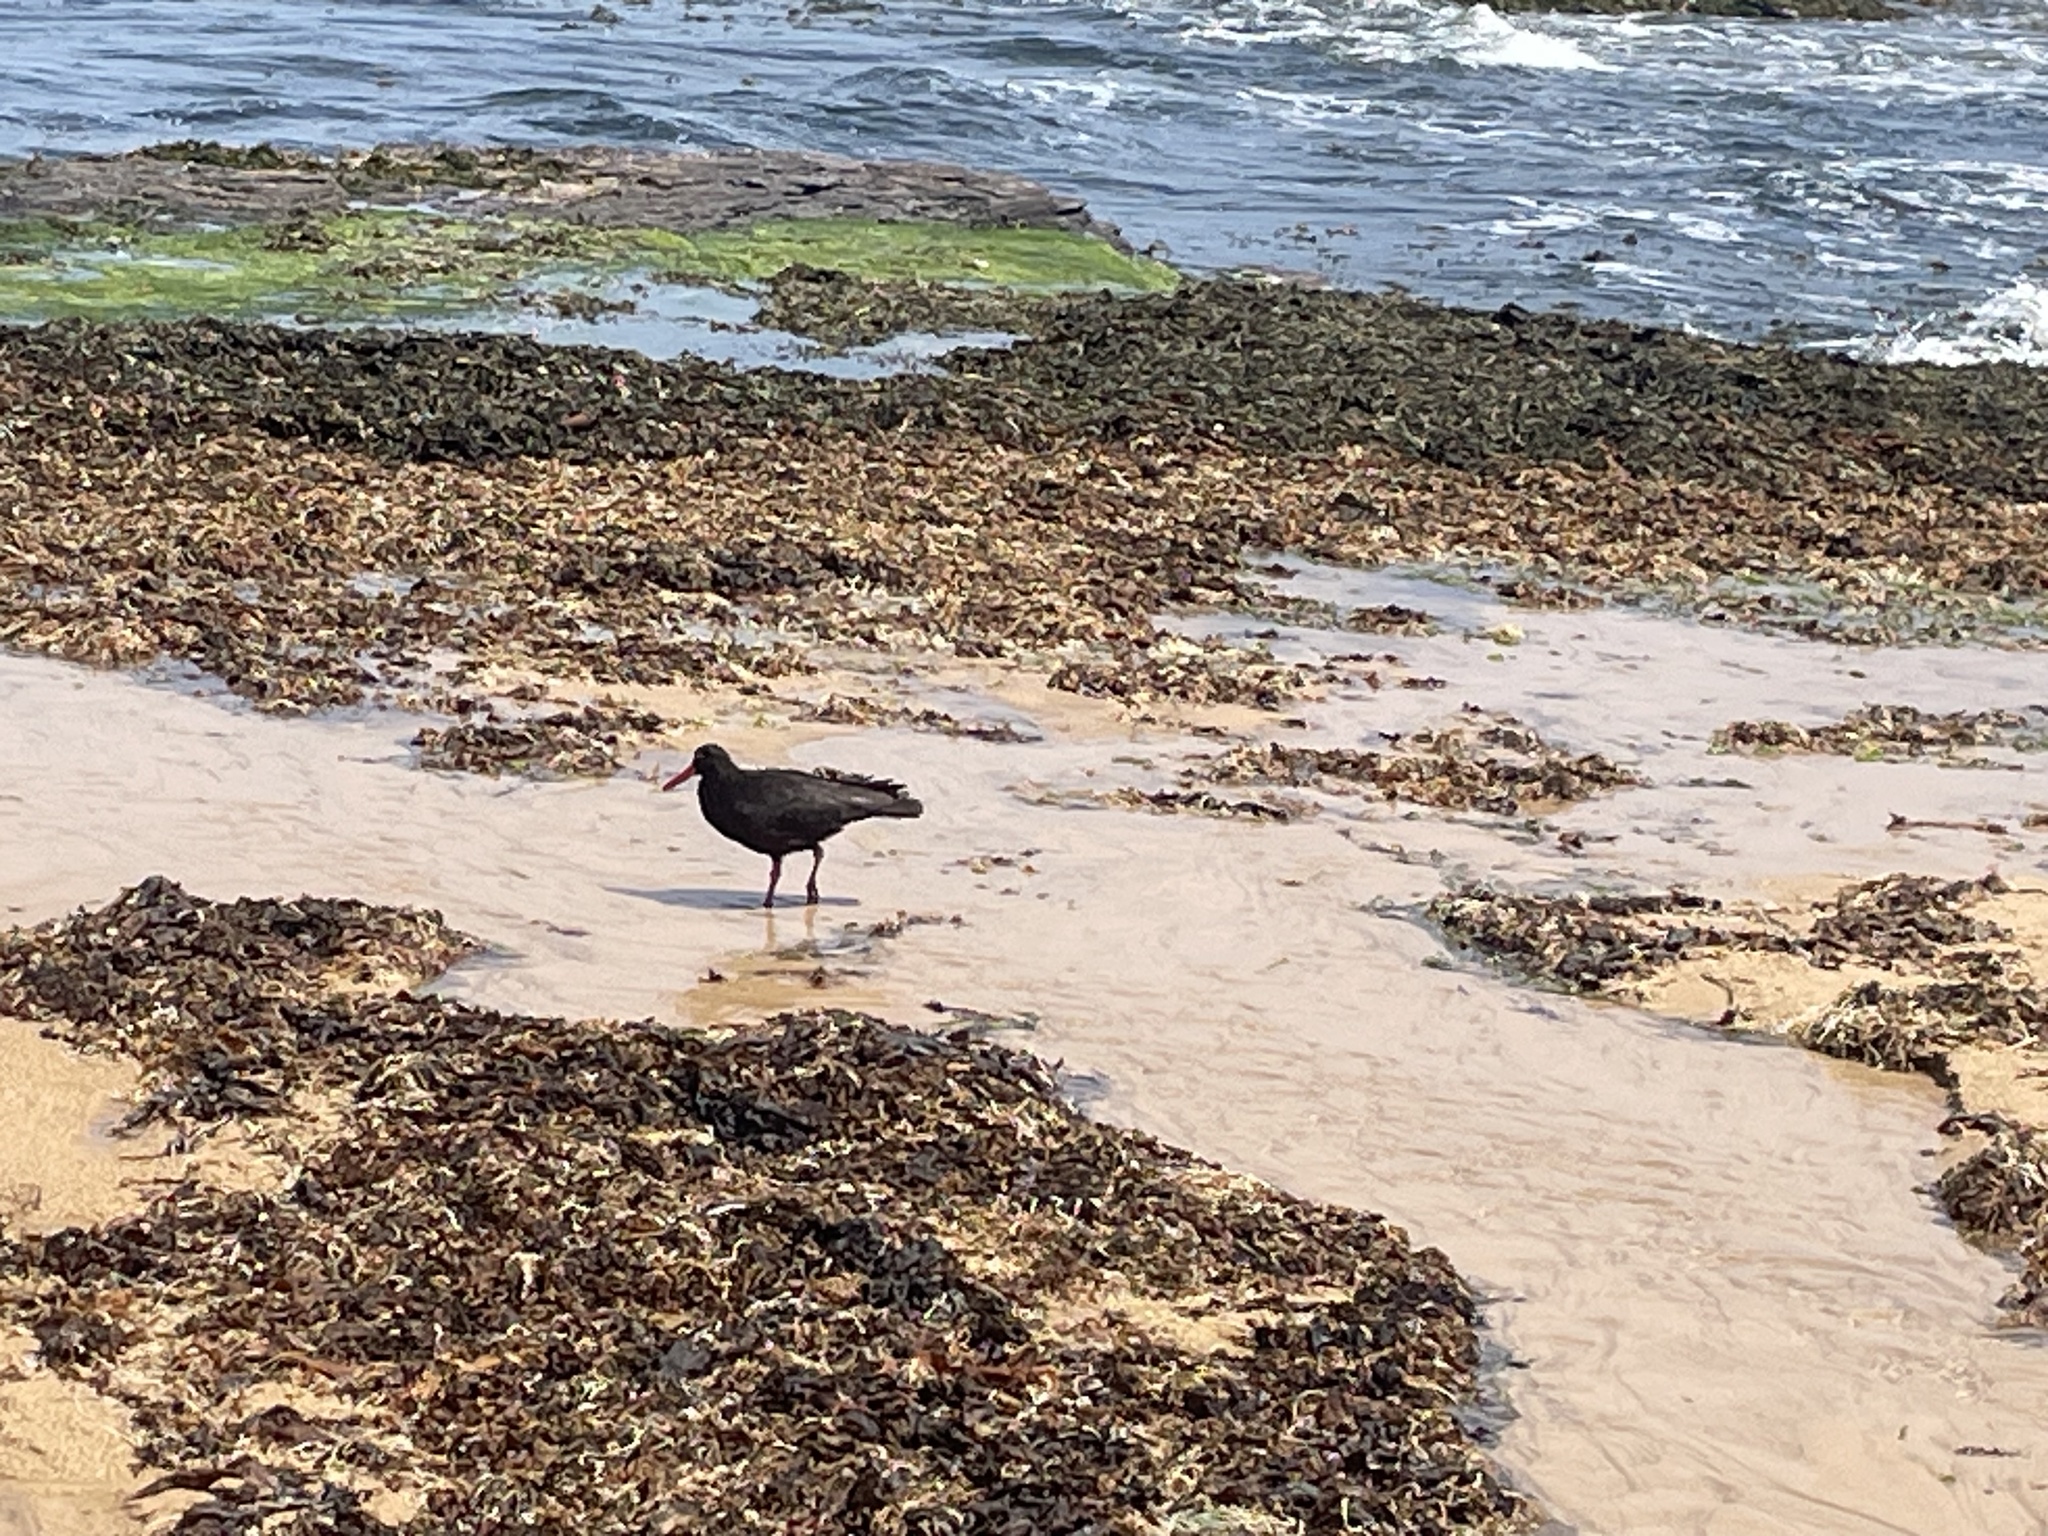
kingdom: Animalia
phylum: Chordata
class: Aves
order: Charadriiformes
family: Haematopodidae
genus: Haematopus
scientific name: Haematopus fuliginosus
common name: Sooty oystercatcher
